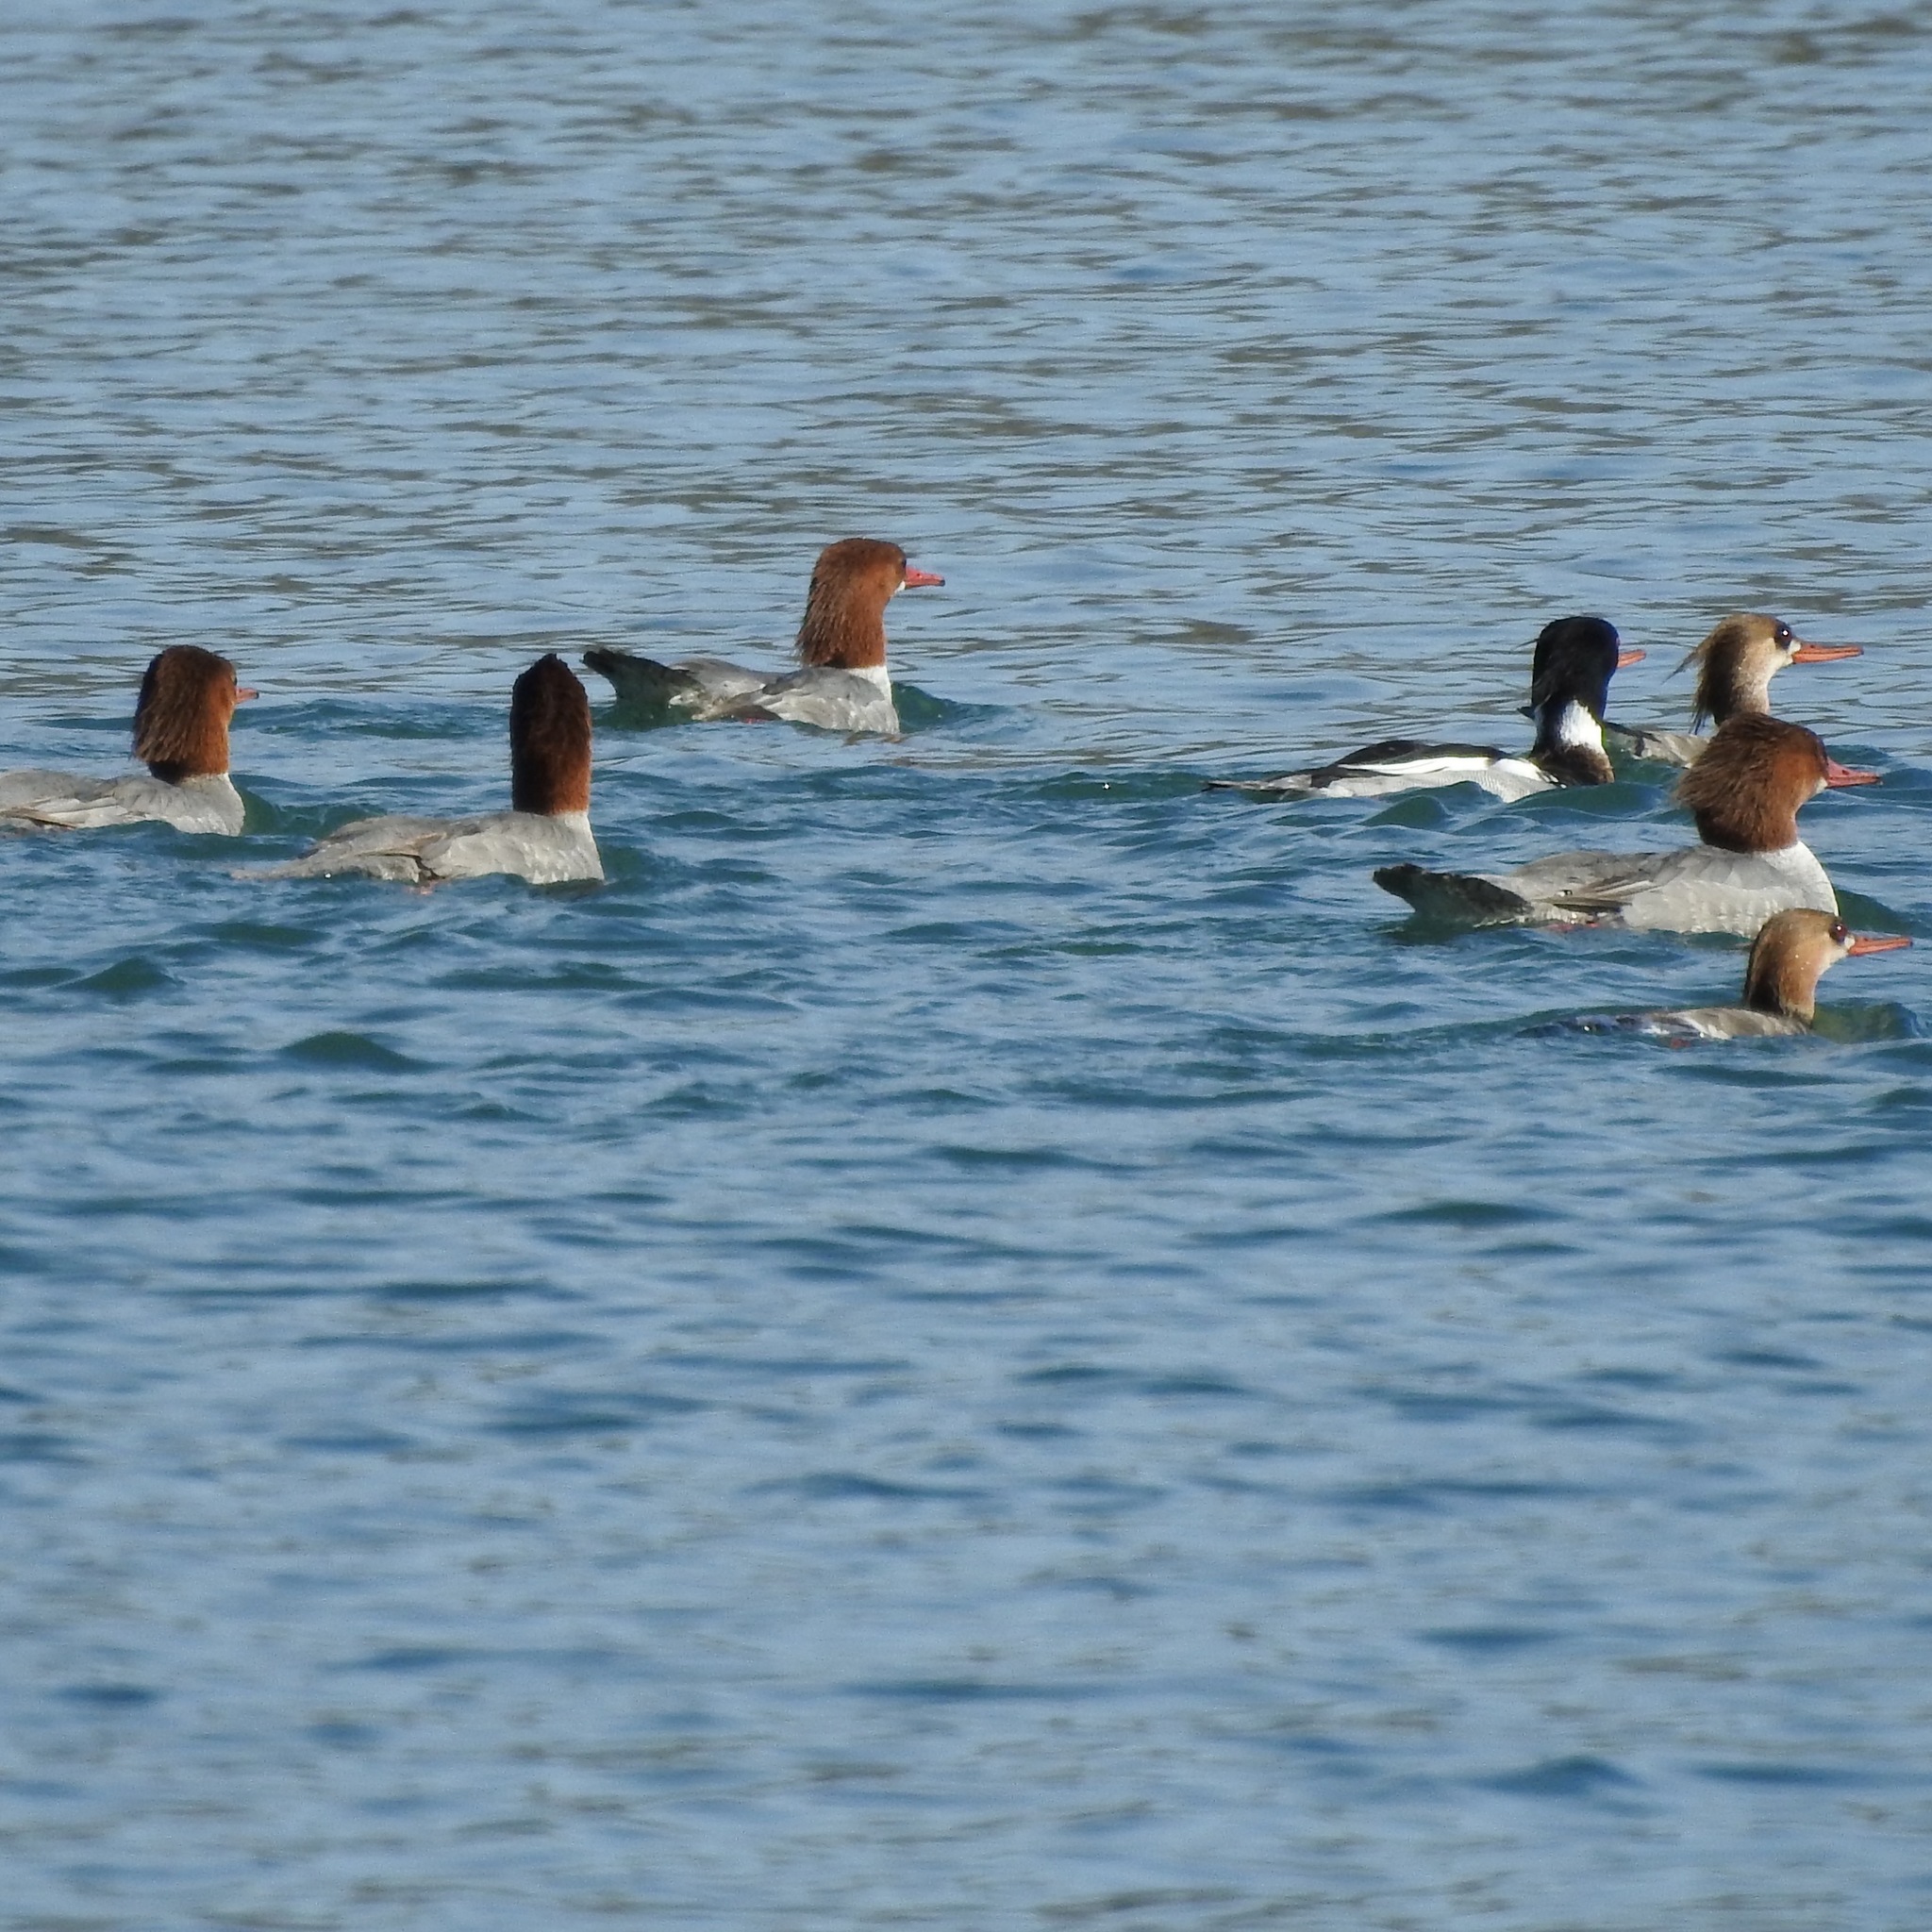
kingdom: Animalia
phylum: Chordata
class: Aves
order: Anseriformes
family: Anatidae
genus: Mergus
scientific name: Mergus serrator
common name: Red-breasted merganser
